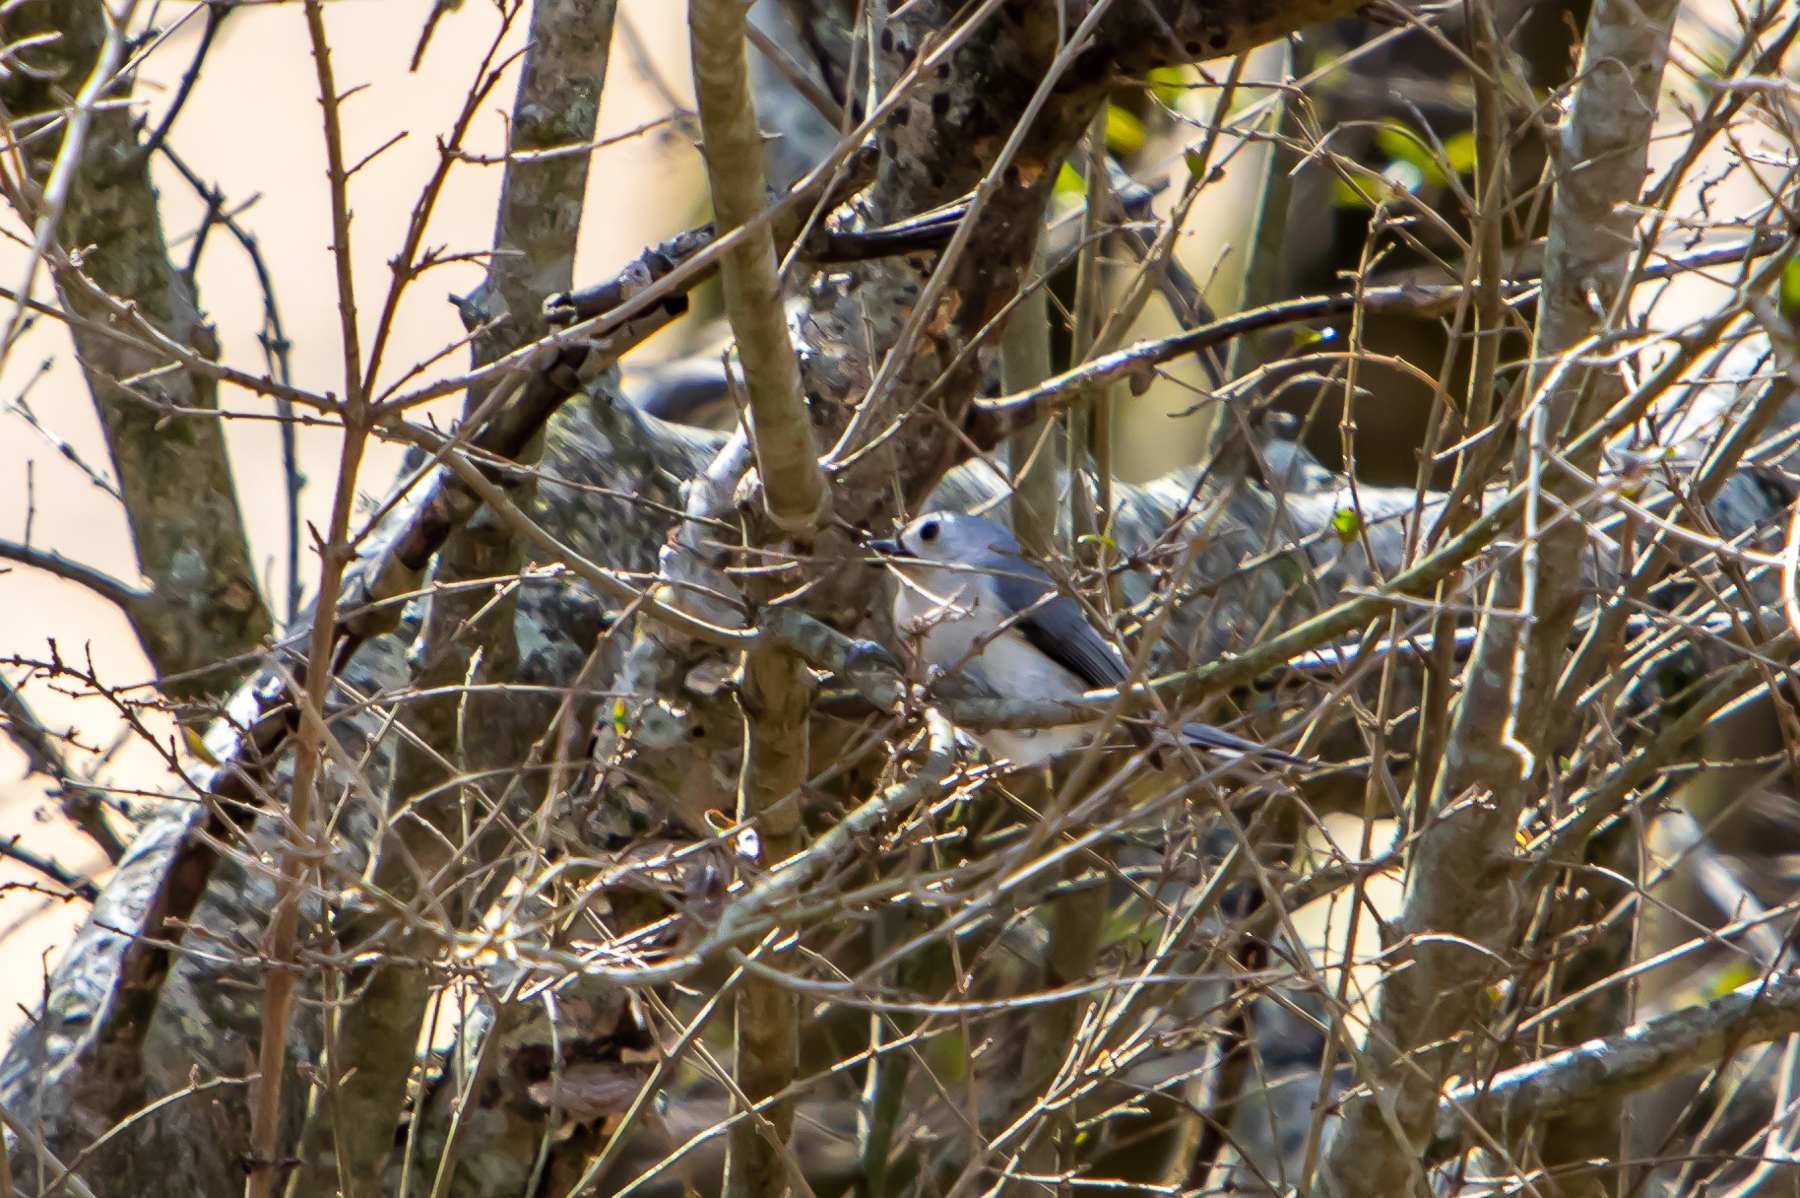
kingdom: Animalia
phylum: Chordata
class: Aves
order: Passeriformes
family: Paridae
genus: Baeolophus
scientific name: Baeolophus bicolor
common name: Tufted titmouse
